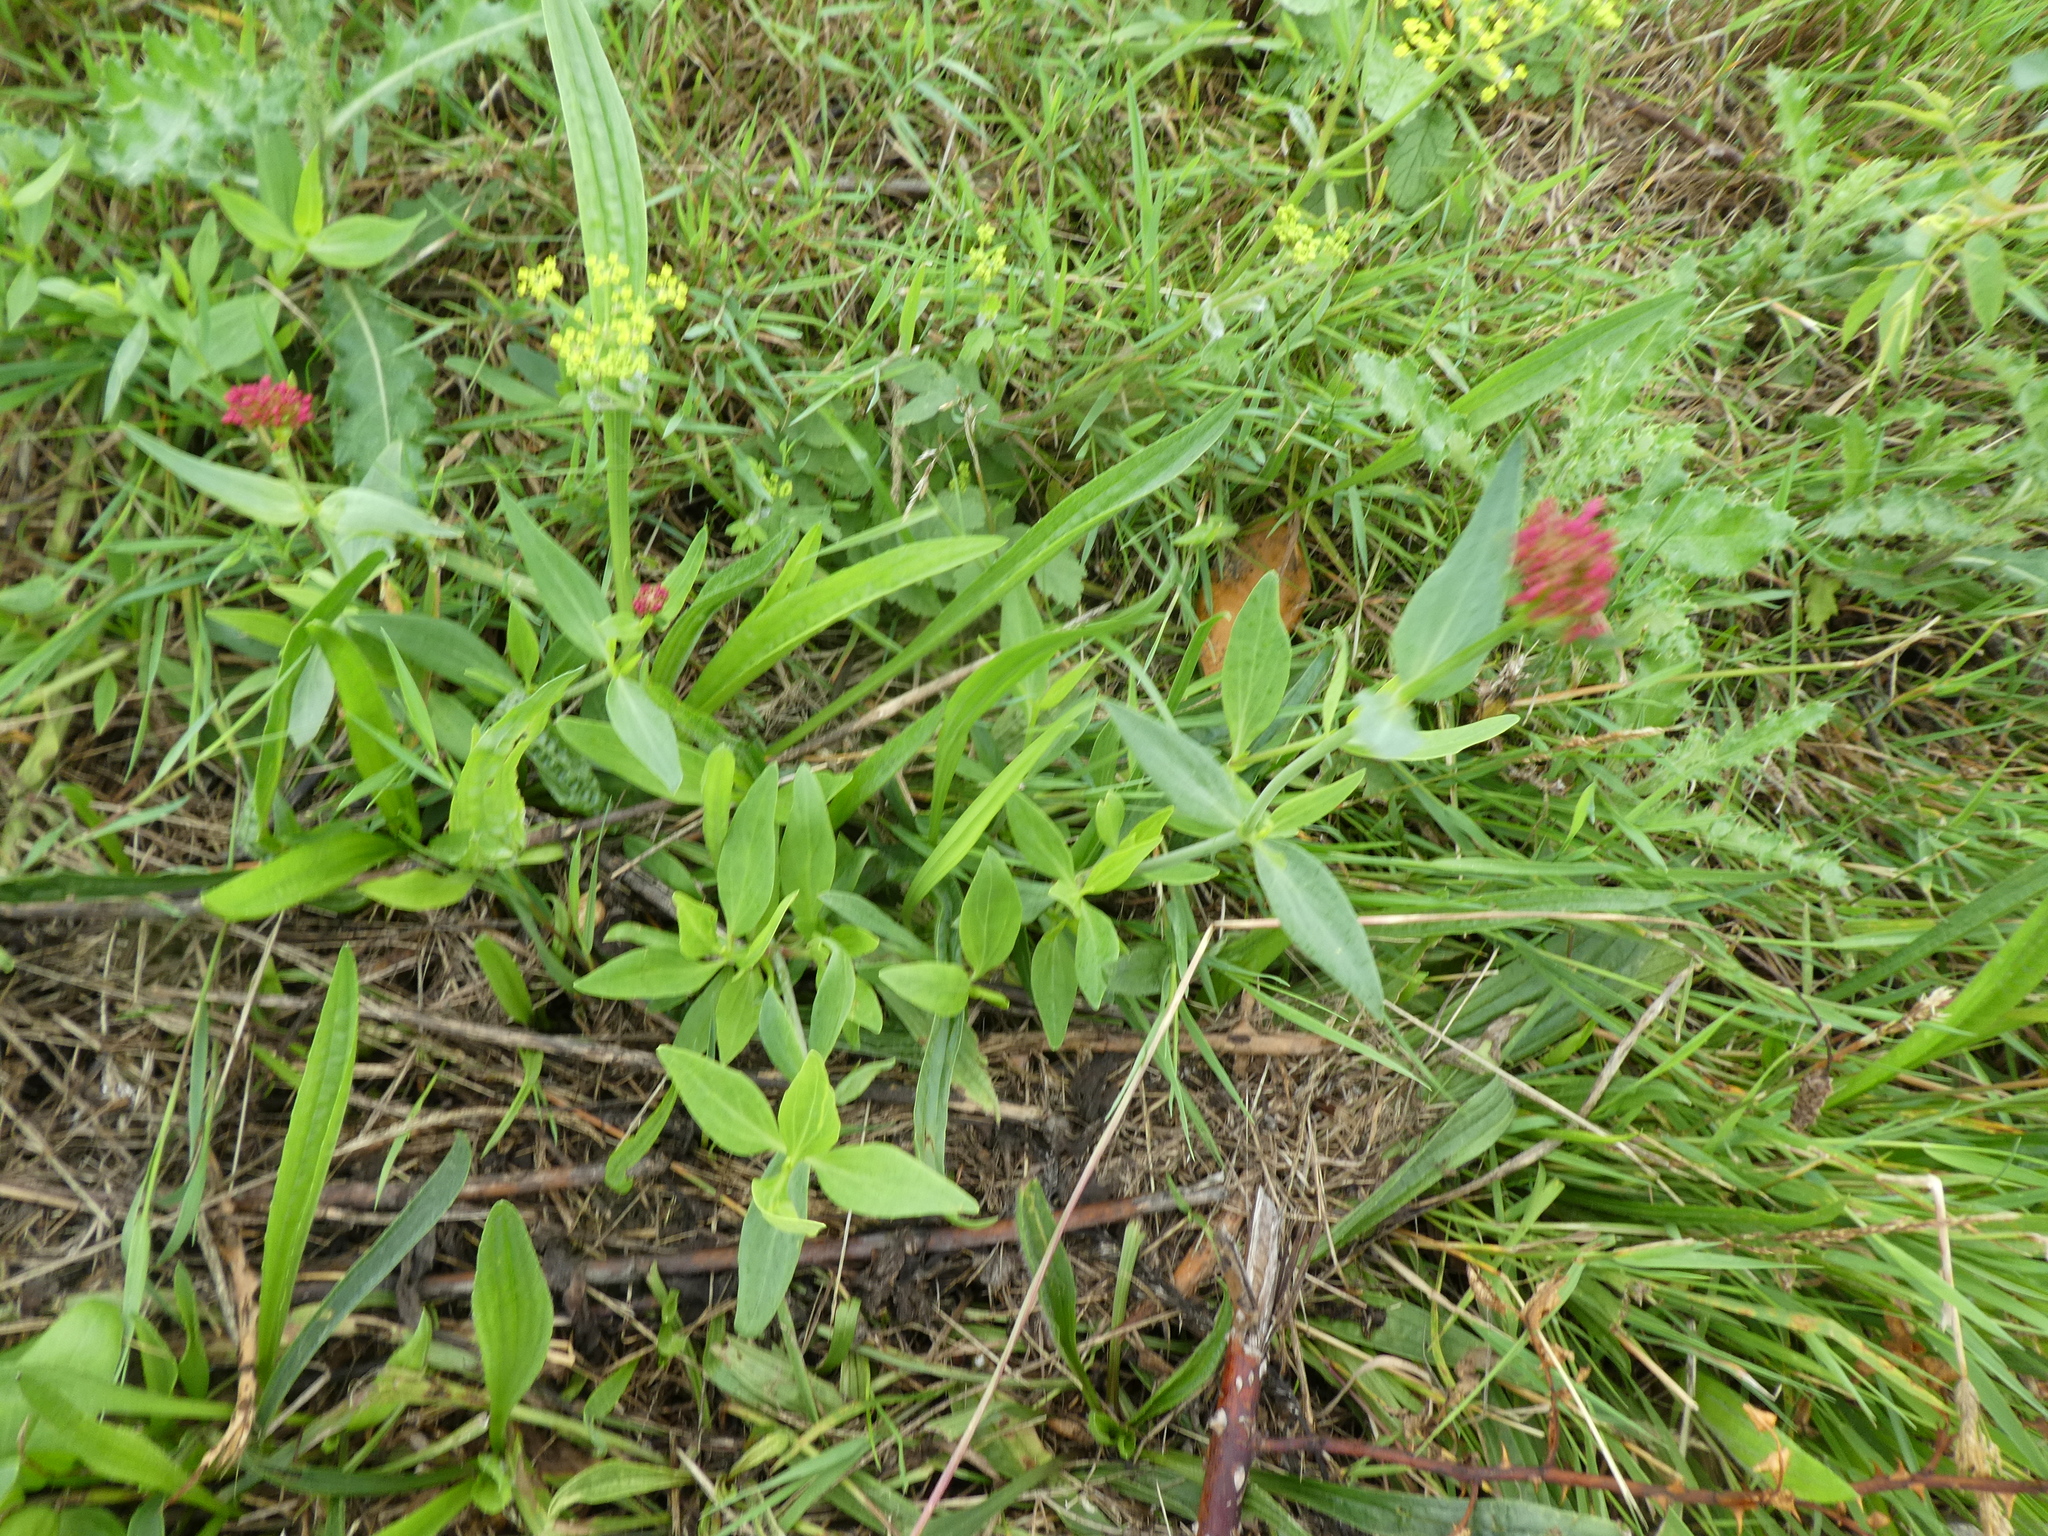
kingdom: Plantae
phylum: Tracheophyta
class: Magnoliopsida
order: Dipsacales
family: Caprifoliaceae
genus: Centranthus
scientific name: Centranthus ruber
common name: Red valerian
